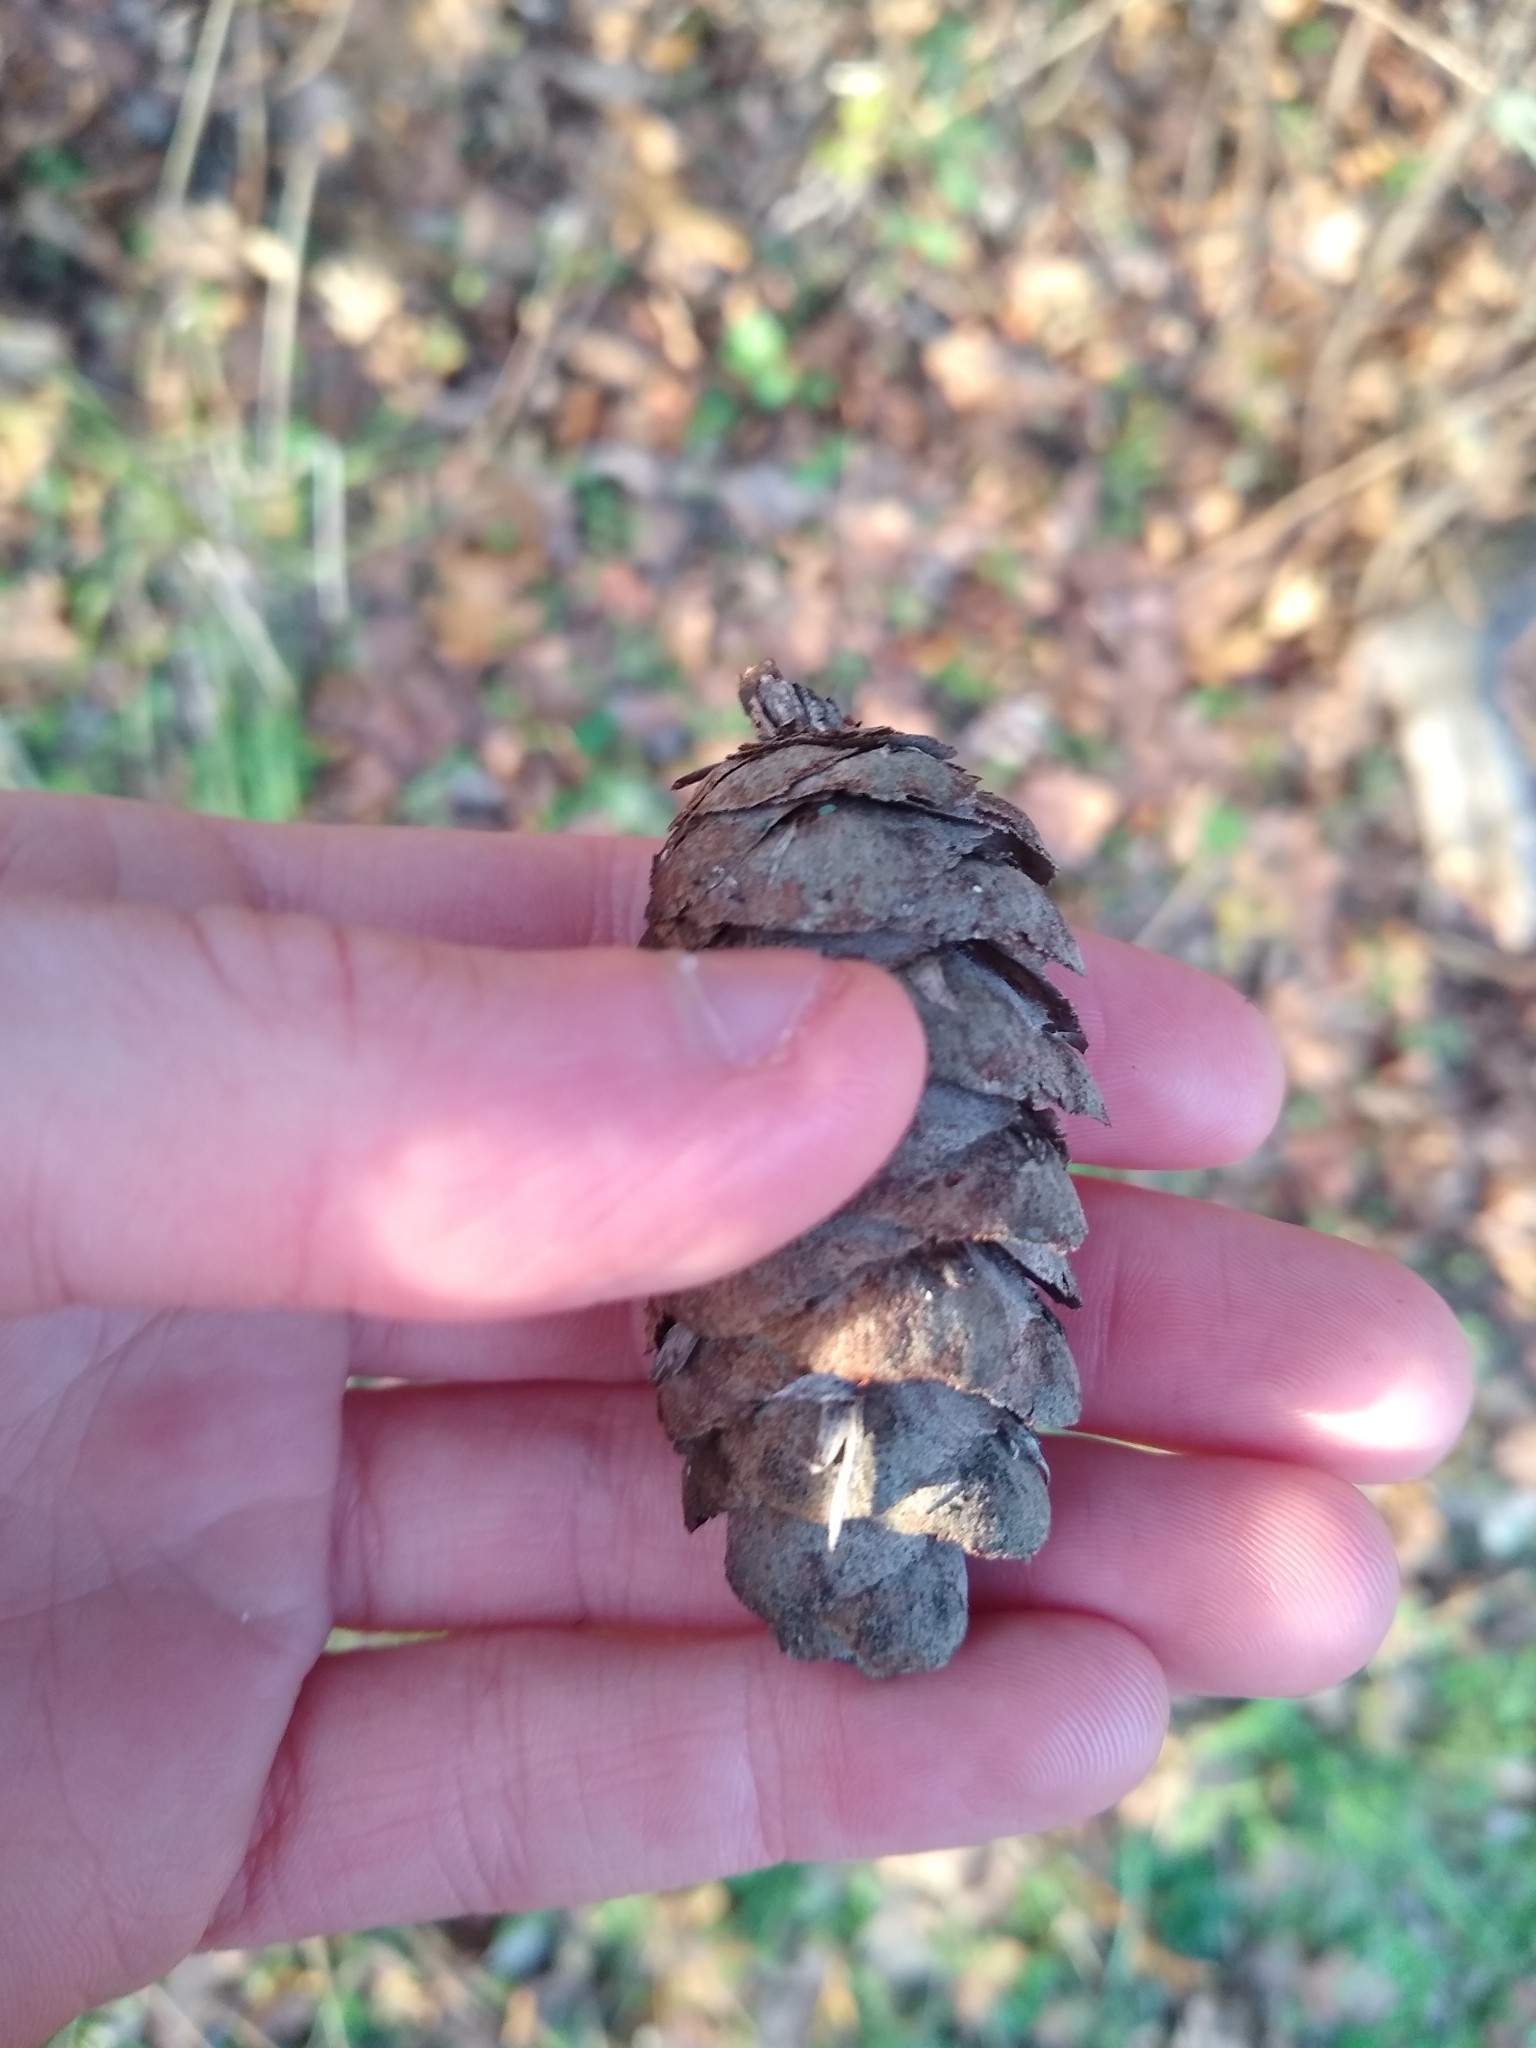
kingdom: Plantae
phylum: Tracheophyta
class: Pinopsida
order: Pinales
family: Pinaceae
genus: Pseudotsuga
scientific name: Pseudotsuga menziesii
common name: Douglas fir
